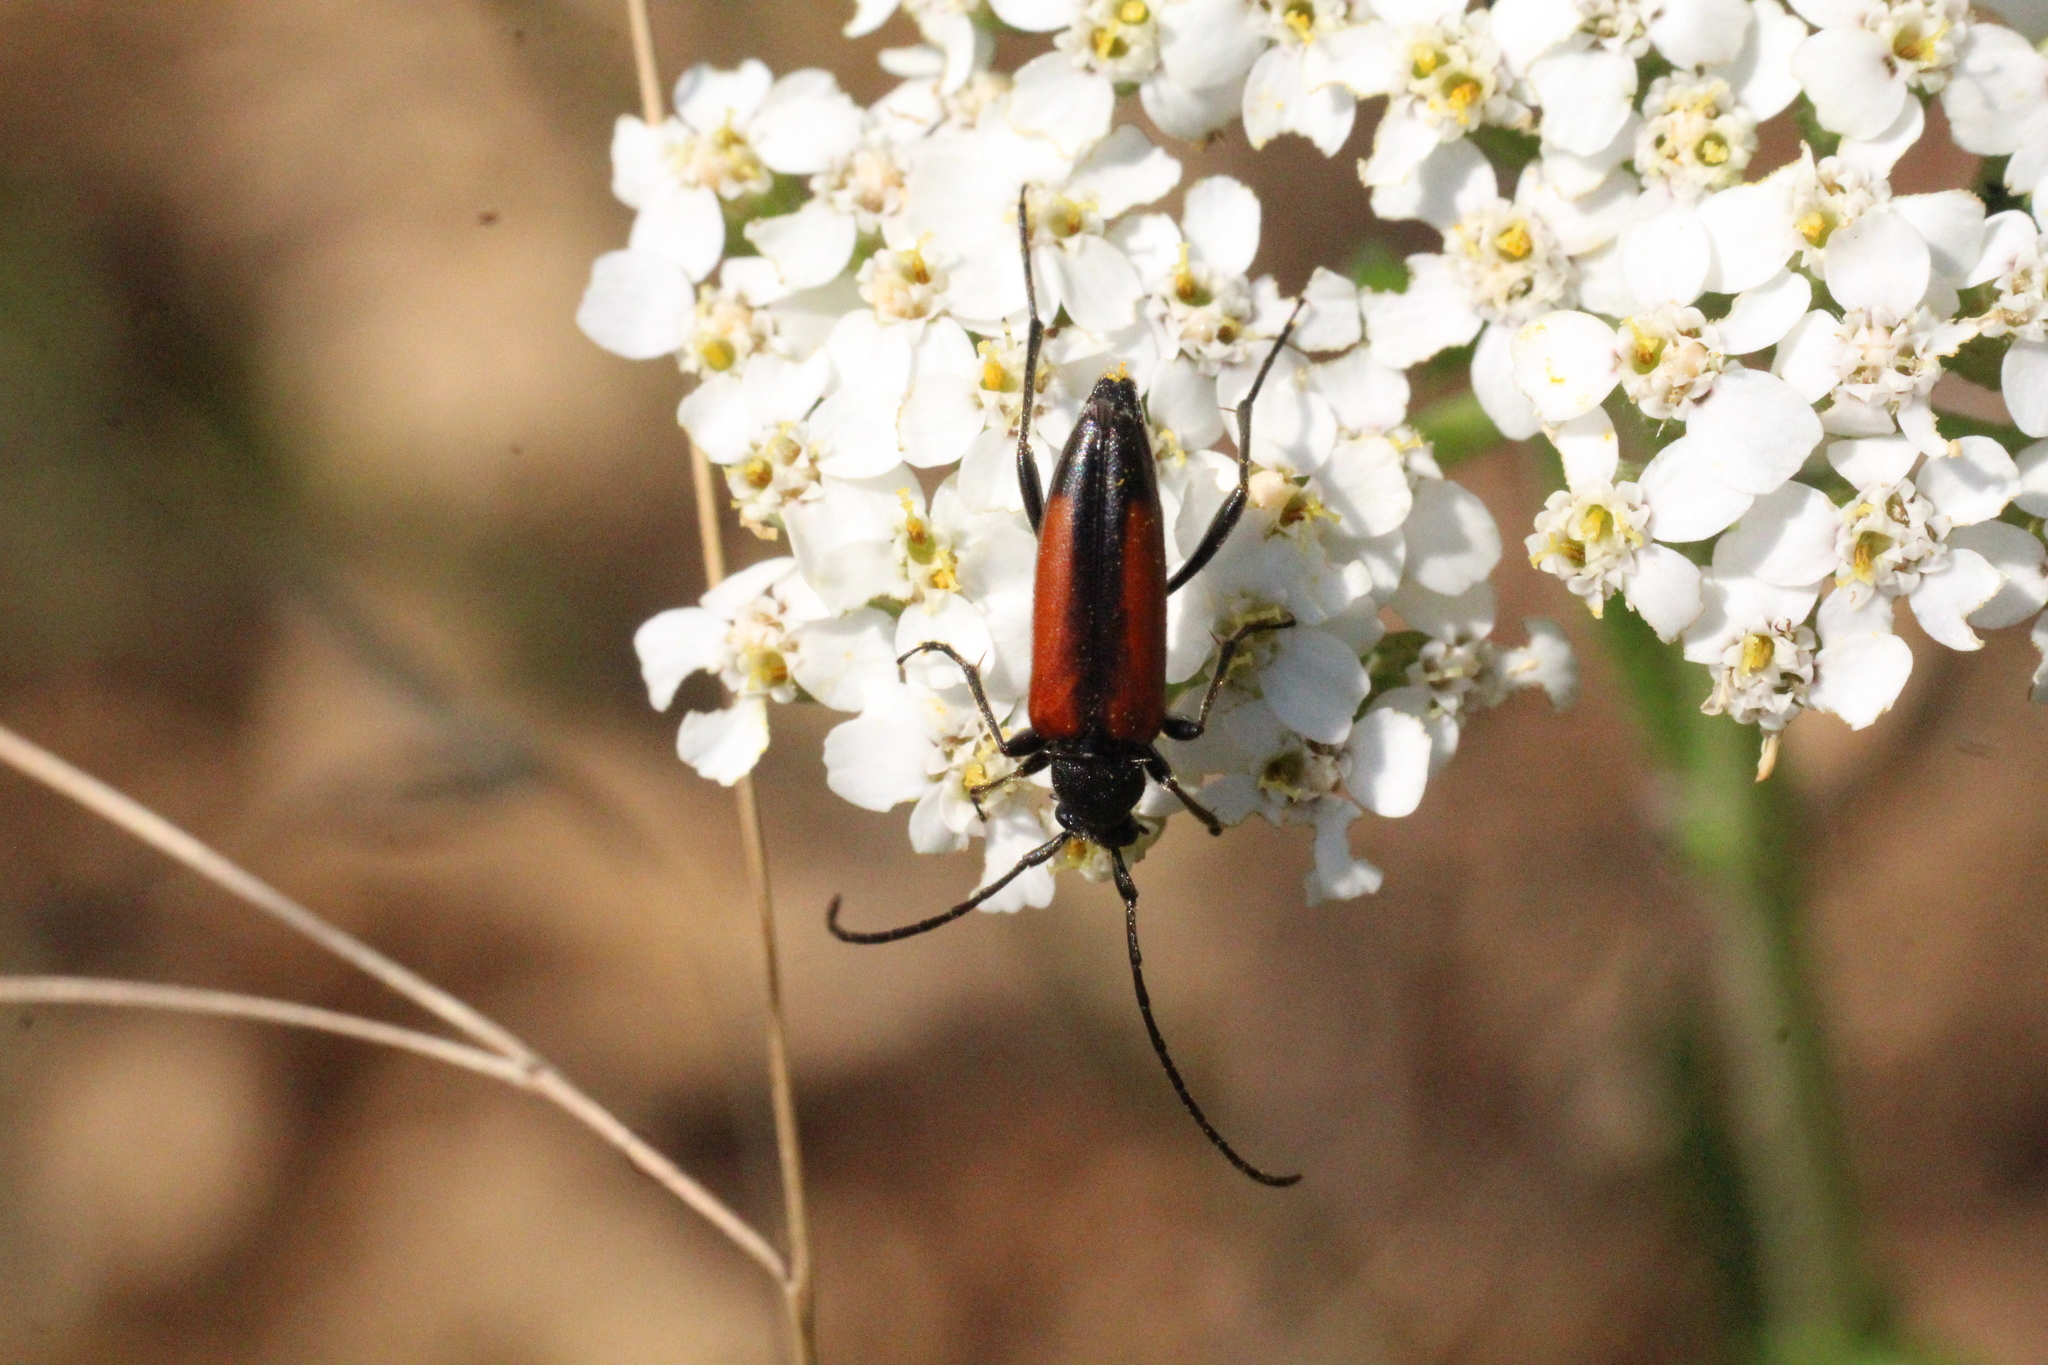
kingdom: Animalia
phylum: Arthropoda
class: Insecta
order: Coleoptera
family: Cerambycidae
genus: Stenurella
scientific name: Stenurella melanura
